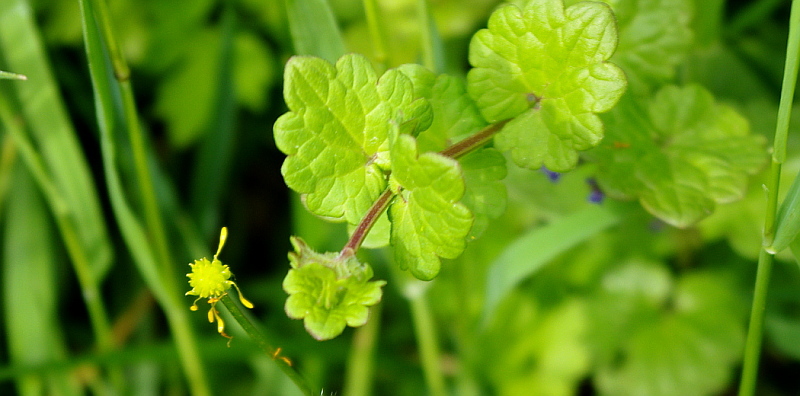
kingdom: Plantae
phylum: Tracheophyta
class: Magnoliopsida
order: Lamiales
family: Lamiaceae
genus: Glechoma
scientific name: Glechoma hederacea
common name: Ground ivy
